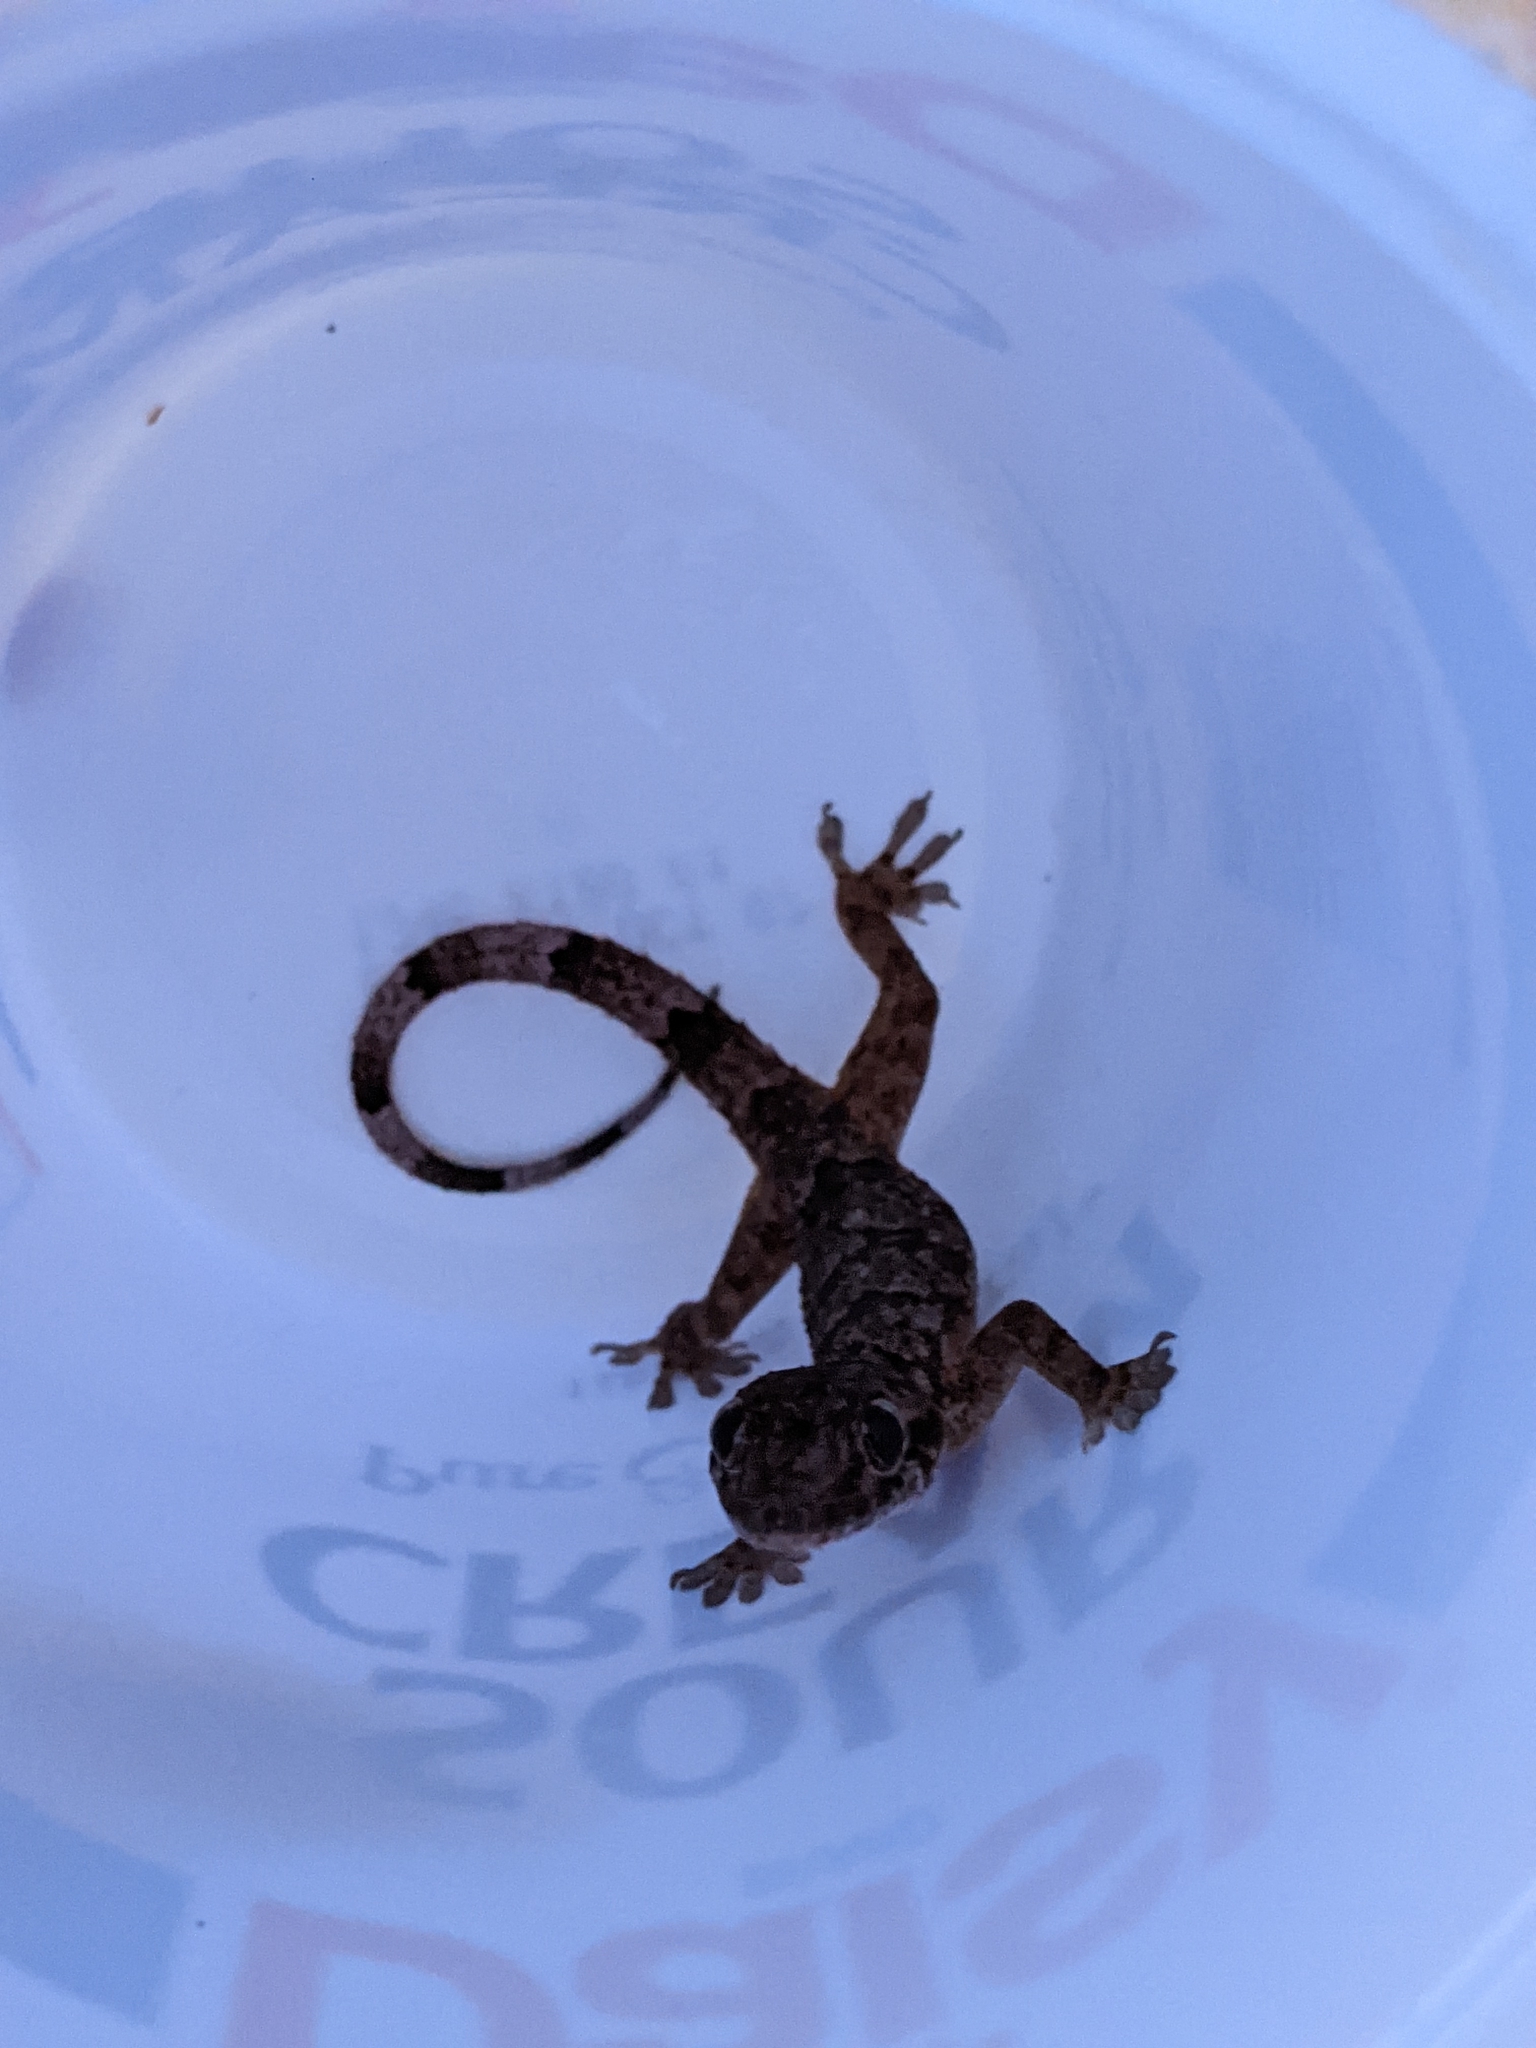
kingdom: Animalia
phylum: Chordata
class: Squamata
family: Gekkonidae
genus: Hemidactylus
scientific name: Hemidactylus mabouia
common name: House gecko
